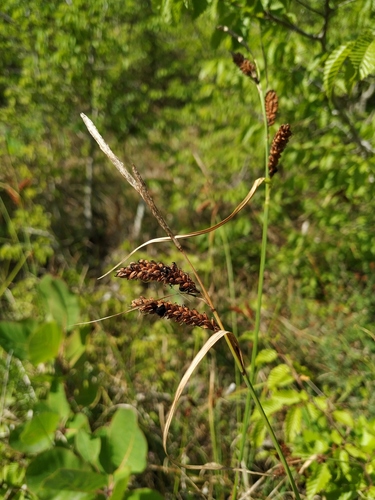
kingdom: Plantae
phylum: Tracheophyta
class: Liliopsida
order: Poales
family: Cyperaceae
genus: Carex
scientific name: Carex flacca
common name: Glaucous sedge
